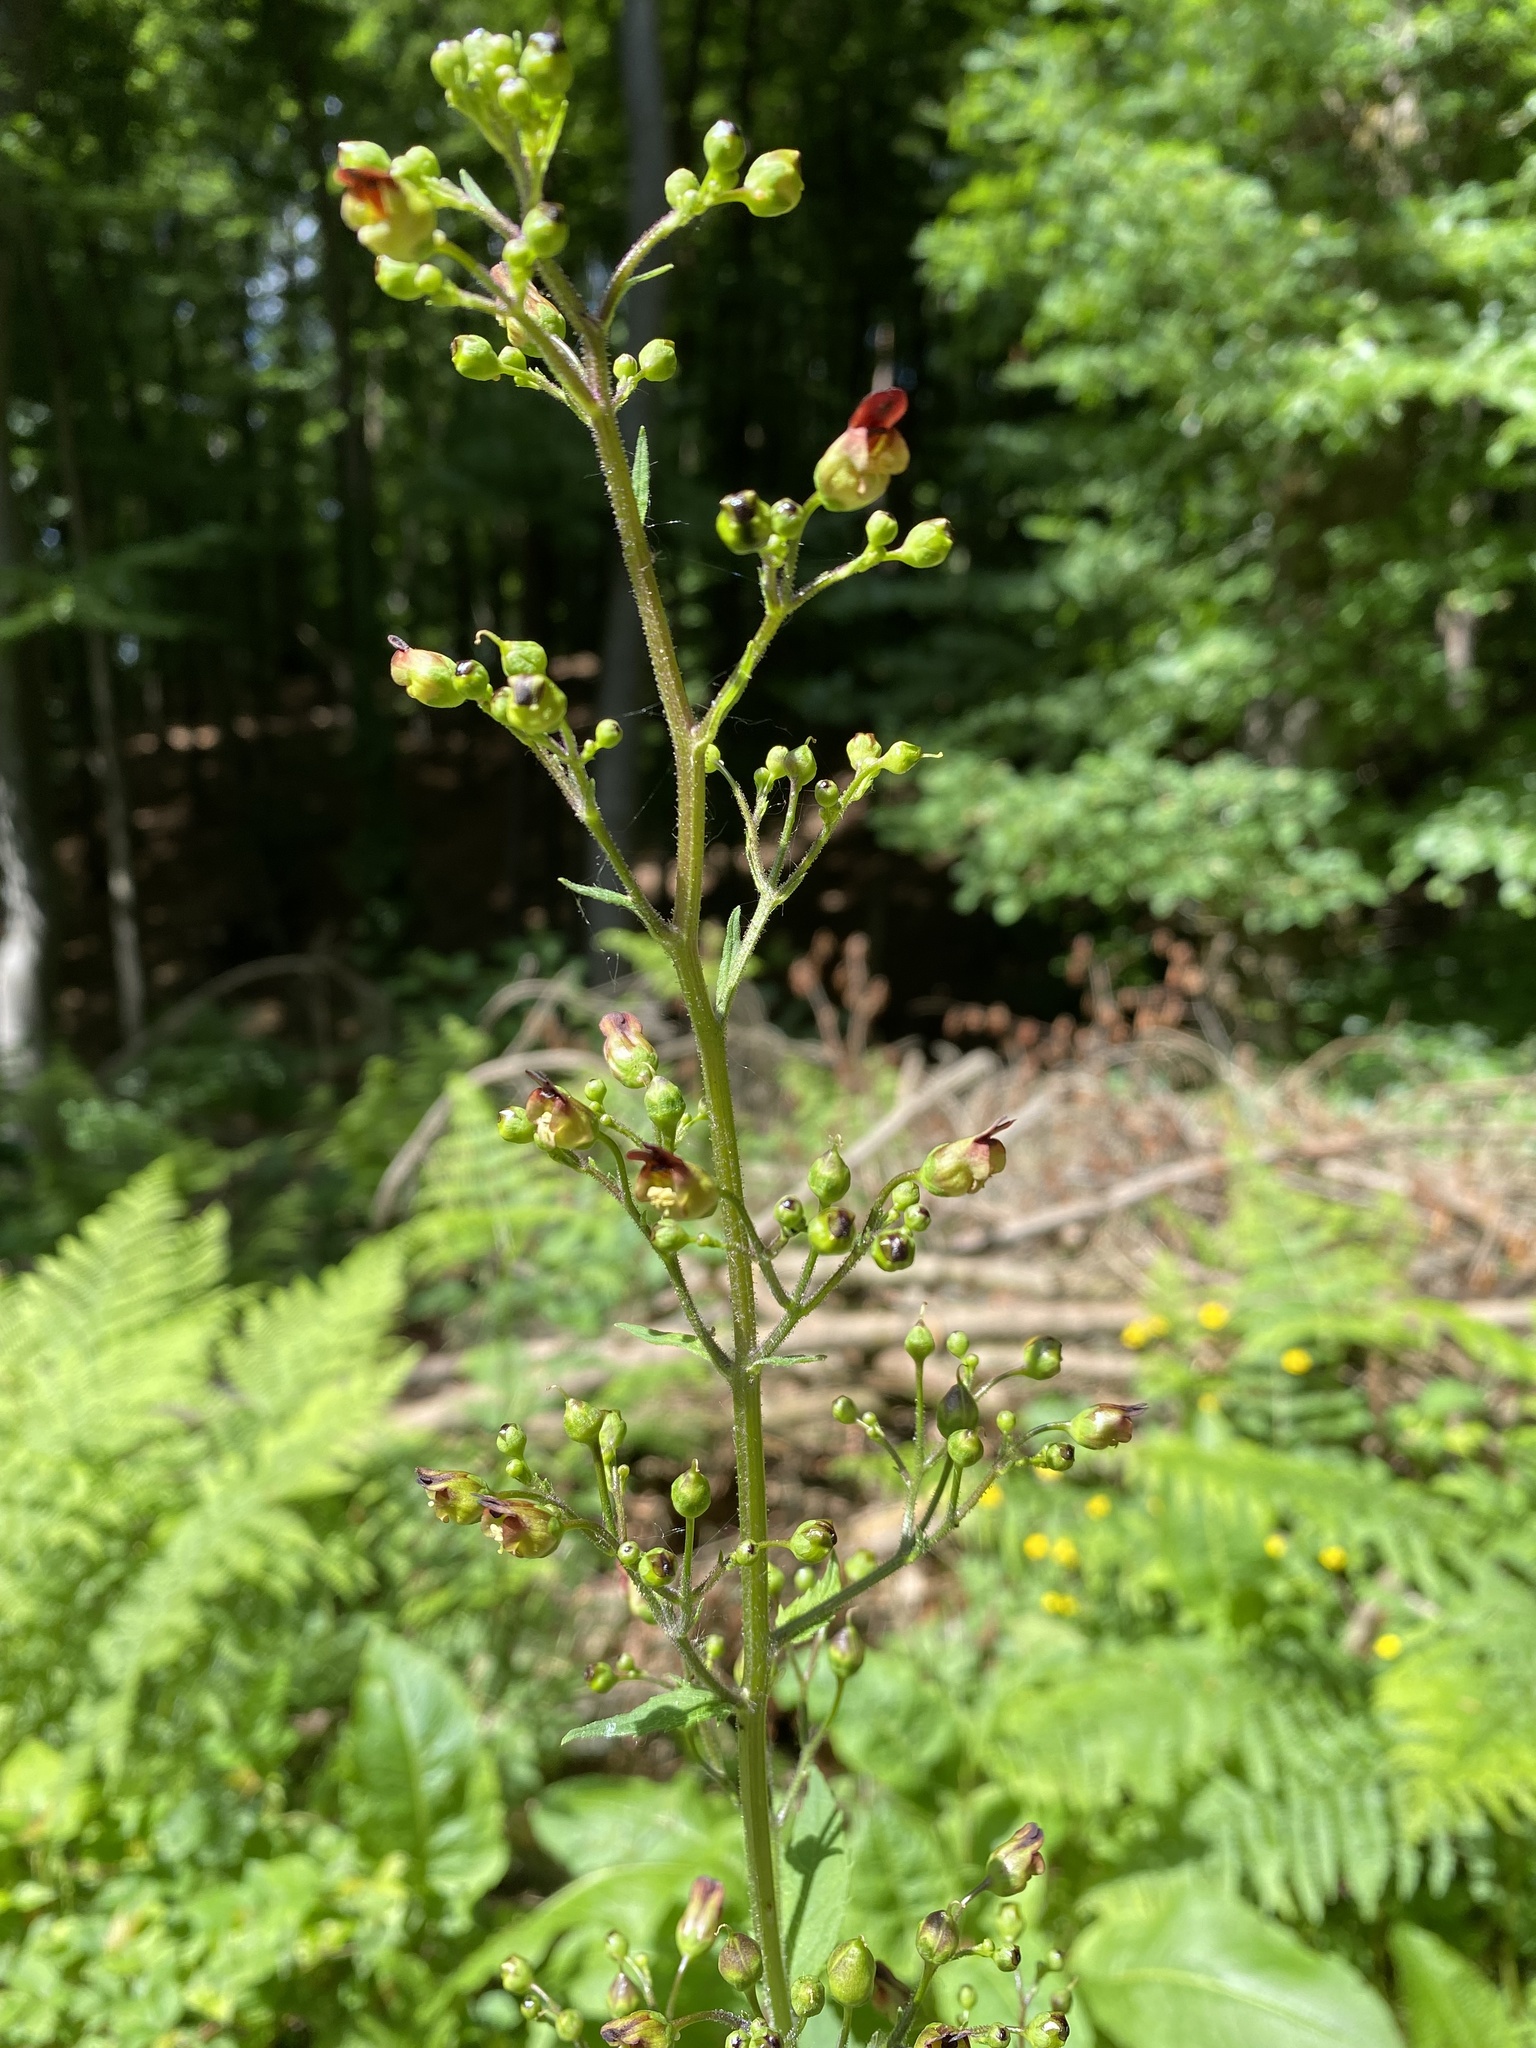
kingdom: Plantae
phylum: Tracheophyta
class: Magnoliopsida
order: Lamiales
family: Scrophulariaceae
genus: Scrophularia
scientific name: Scrophularia nodosa
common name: Common figwort
